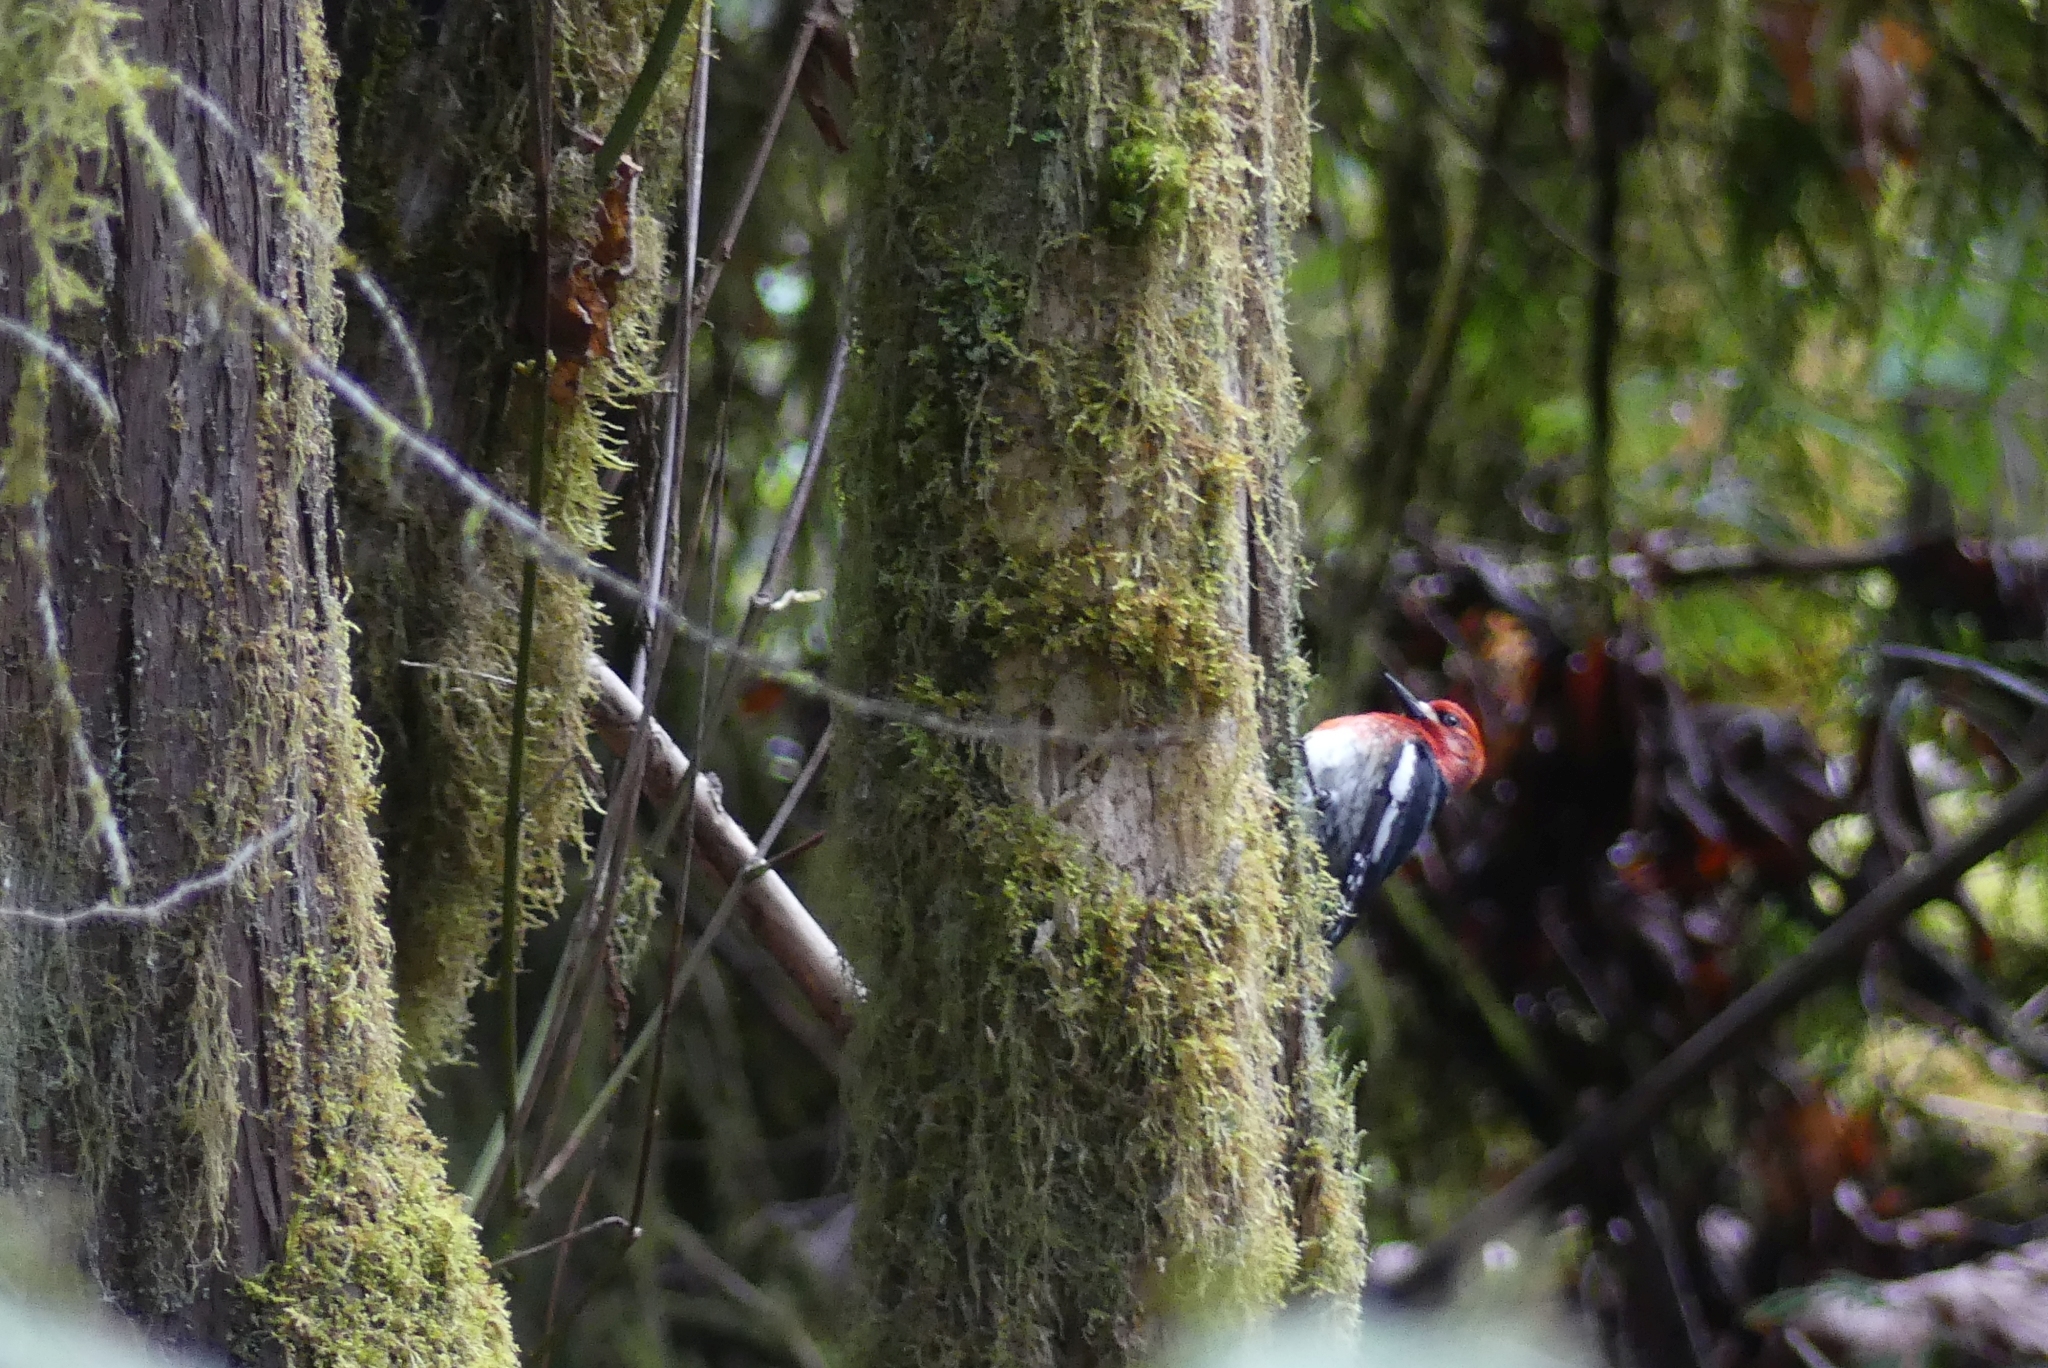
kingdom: Animalia
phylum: Chordata
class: Aves
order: Piciformes
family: Picidae
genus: Sphyrapicus
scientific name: Sphyrapicus ruber
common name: Red-breasted sapsucker
